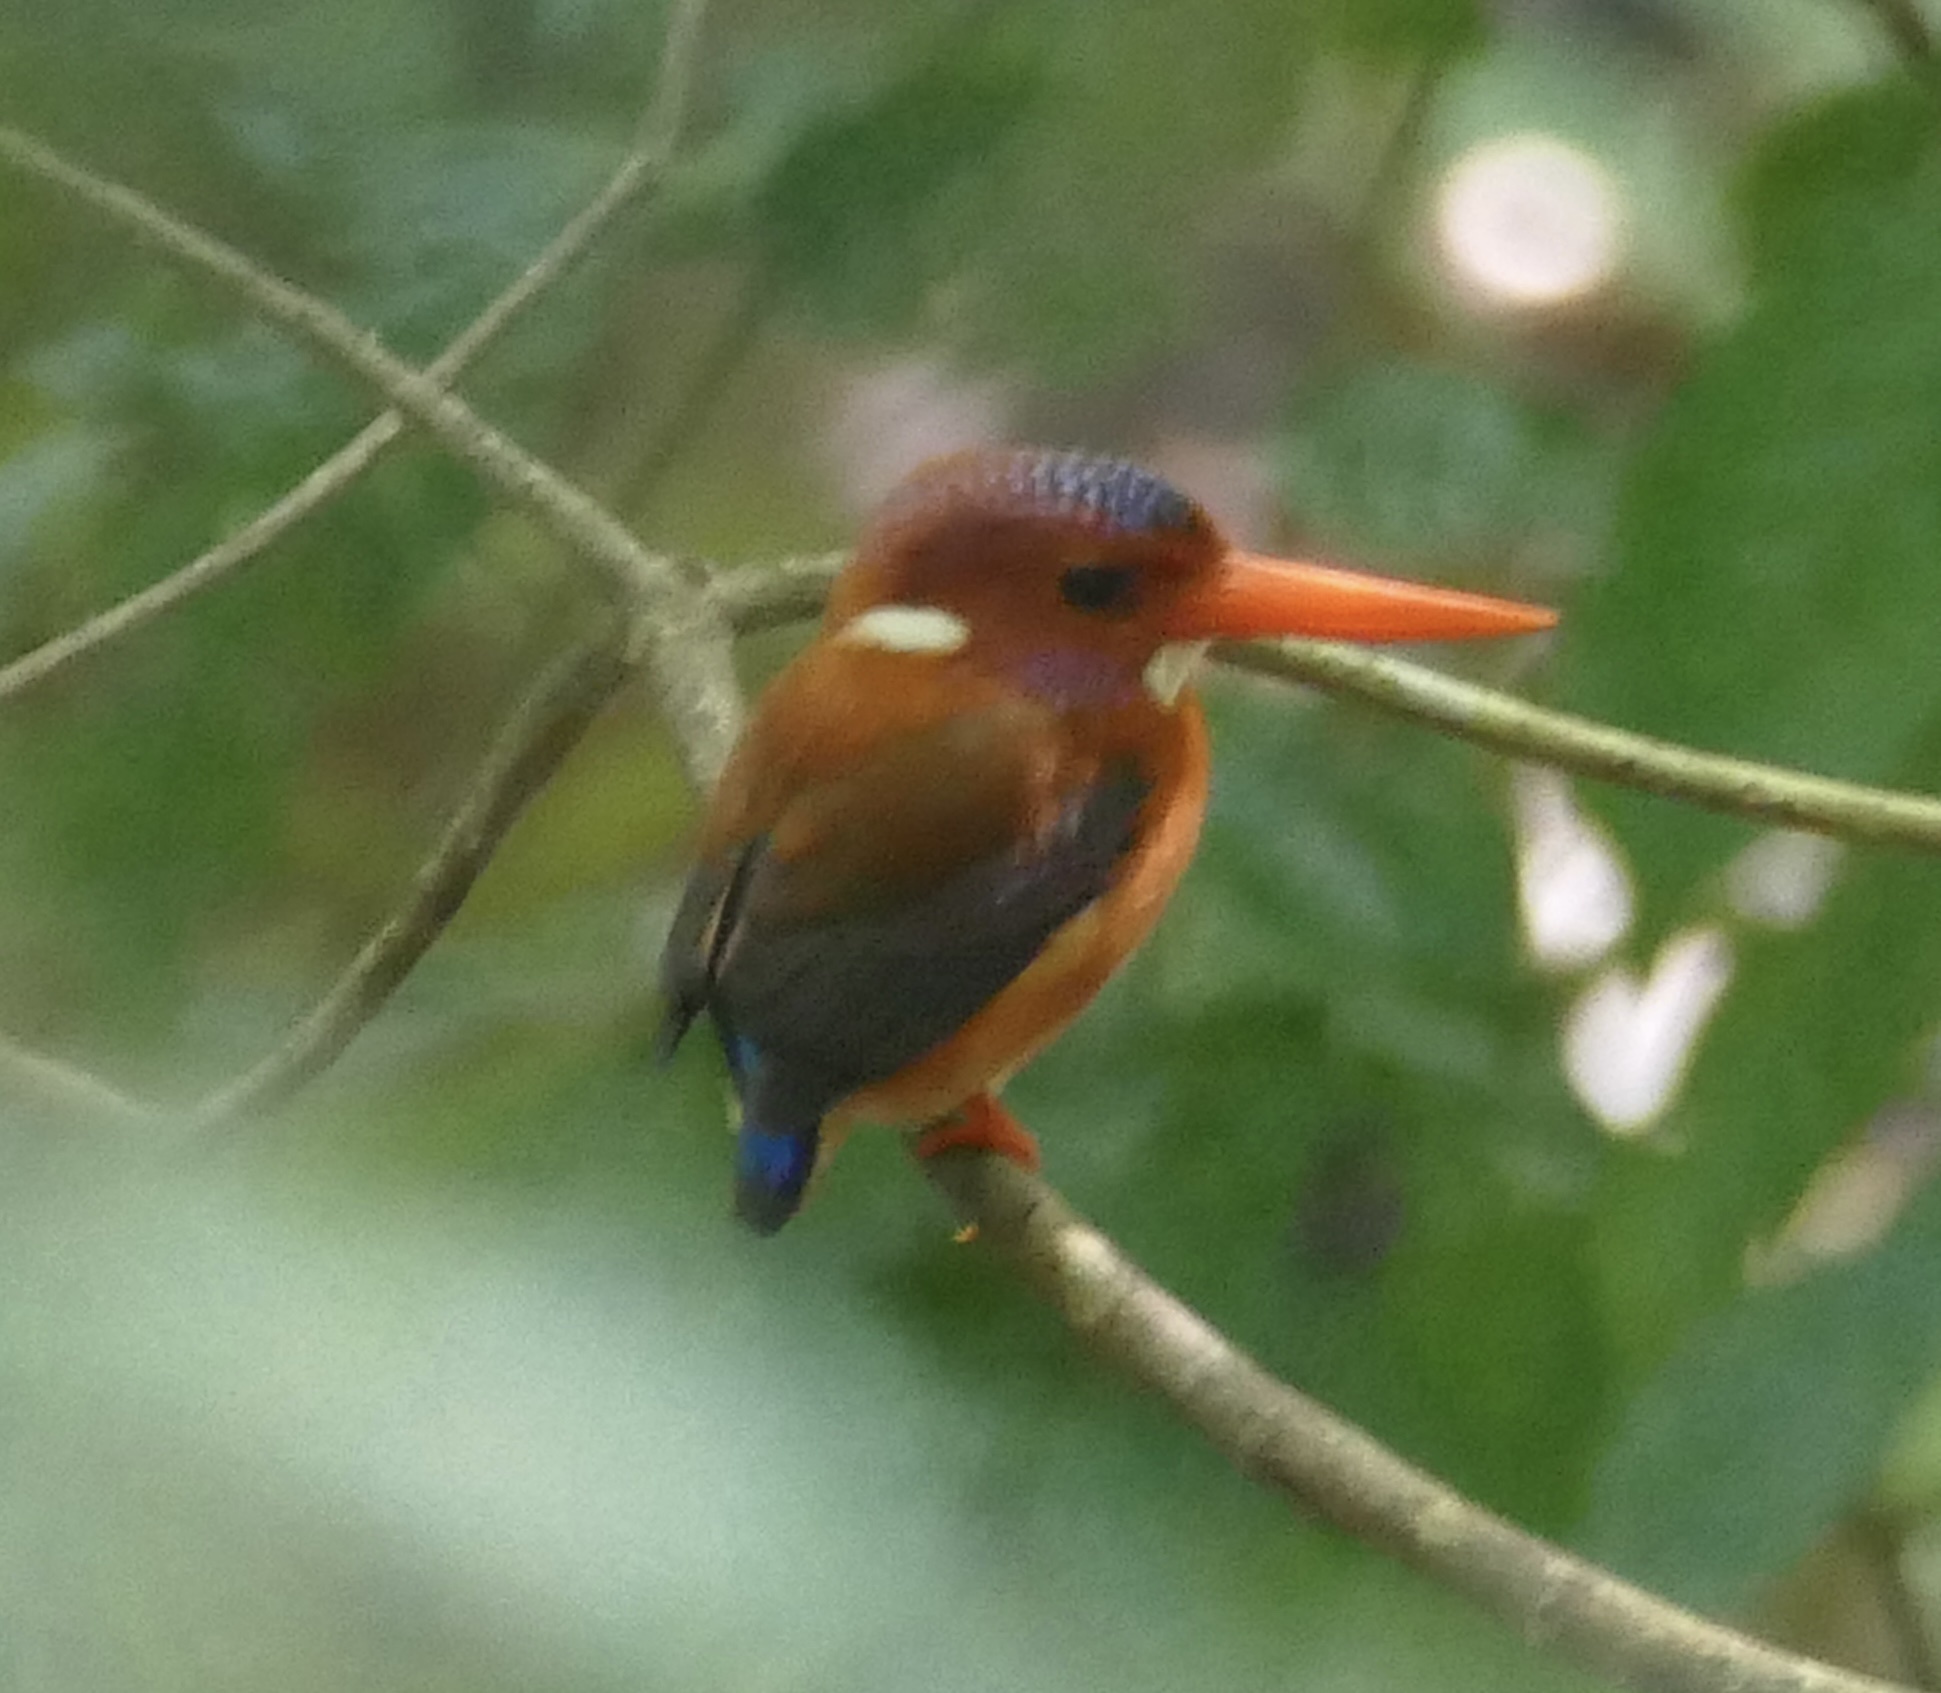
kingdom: Animalia
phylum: Chordata
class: Aves
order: Coraciiformes
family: Alcedinidae
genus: Ceyx
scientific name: Ceyx fallax
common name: Sulawesi dwarf kingfisher
